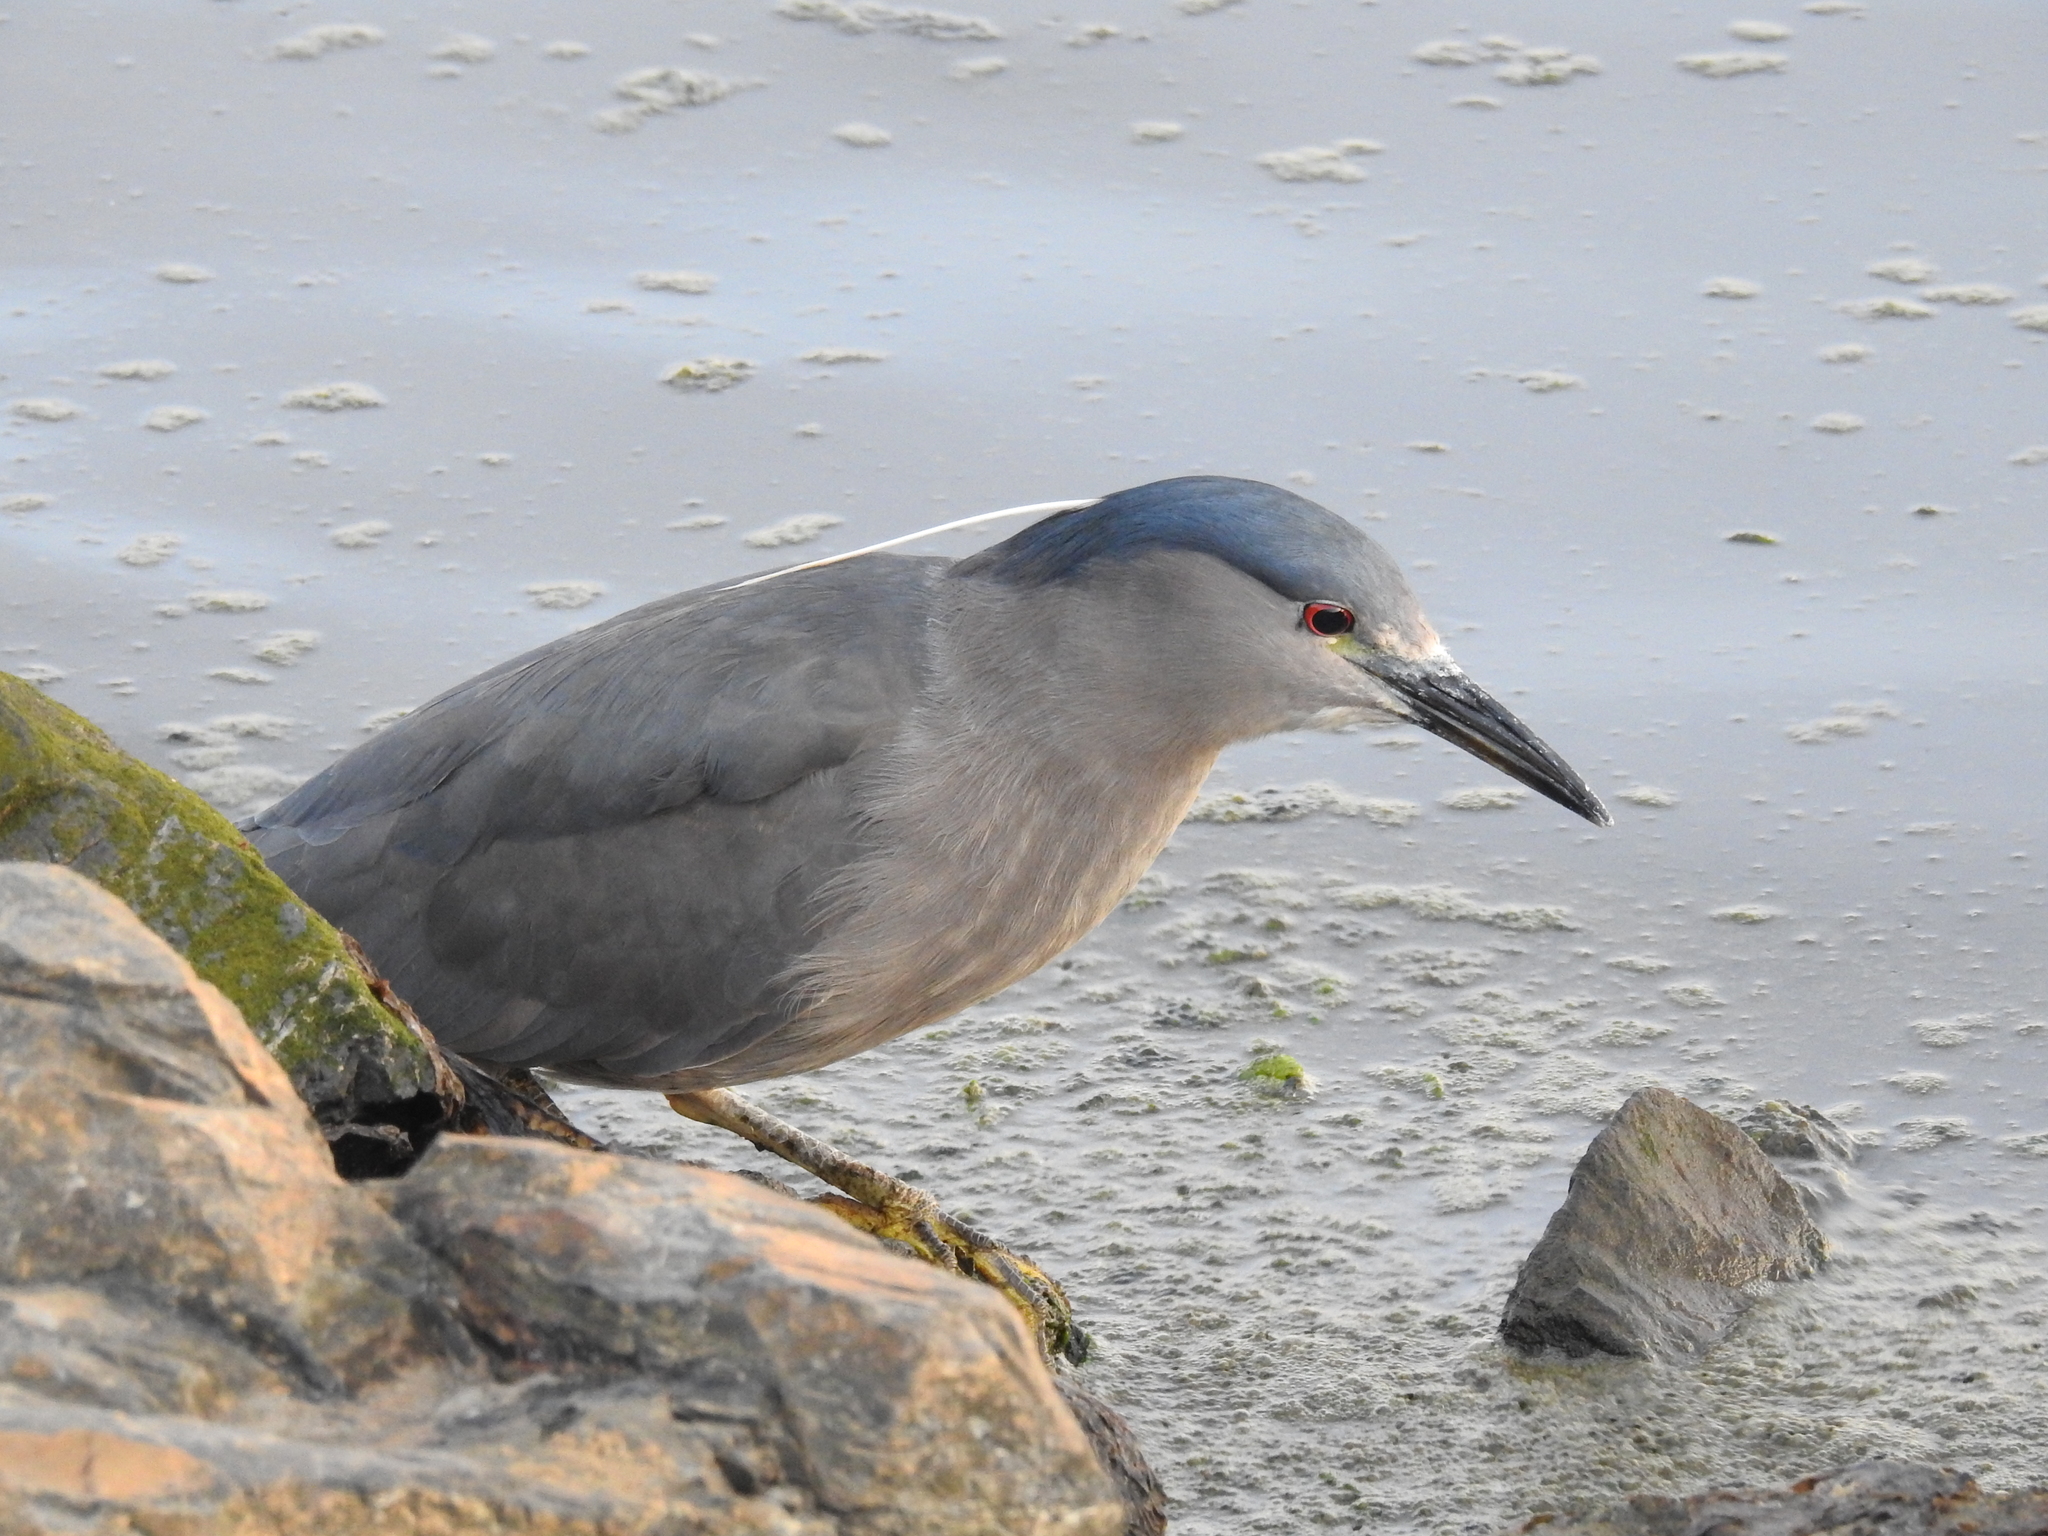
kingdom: Animalia
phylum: Chordata
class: Aves
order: Pelecaniformes
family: Ardeidae
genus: Nycticorax
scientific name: Nycticorax nycticorax
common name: Black-crowned night heron
